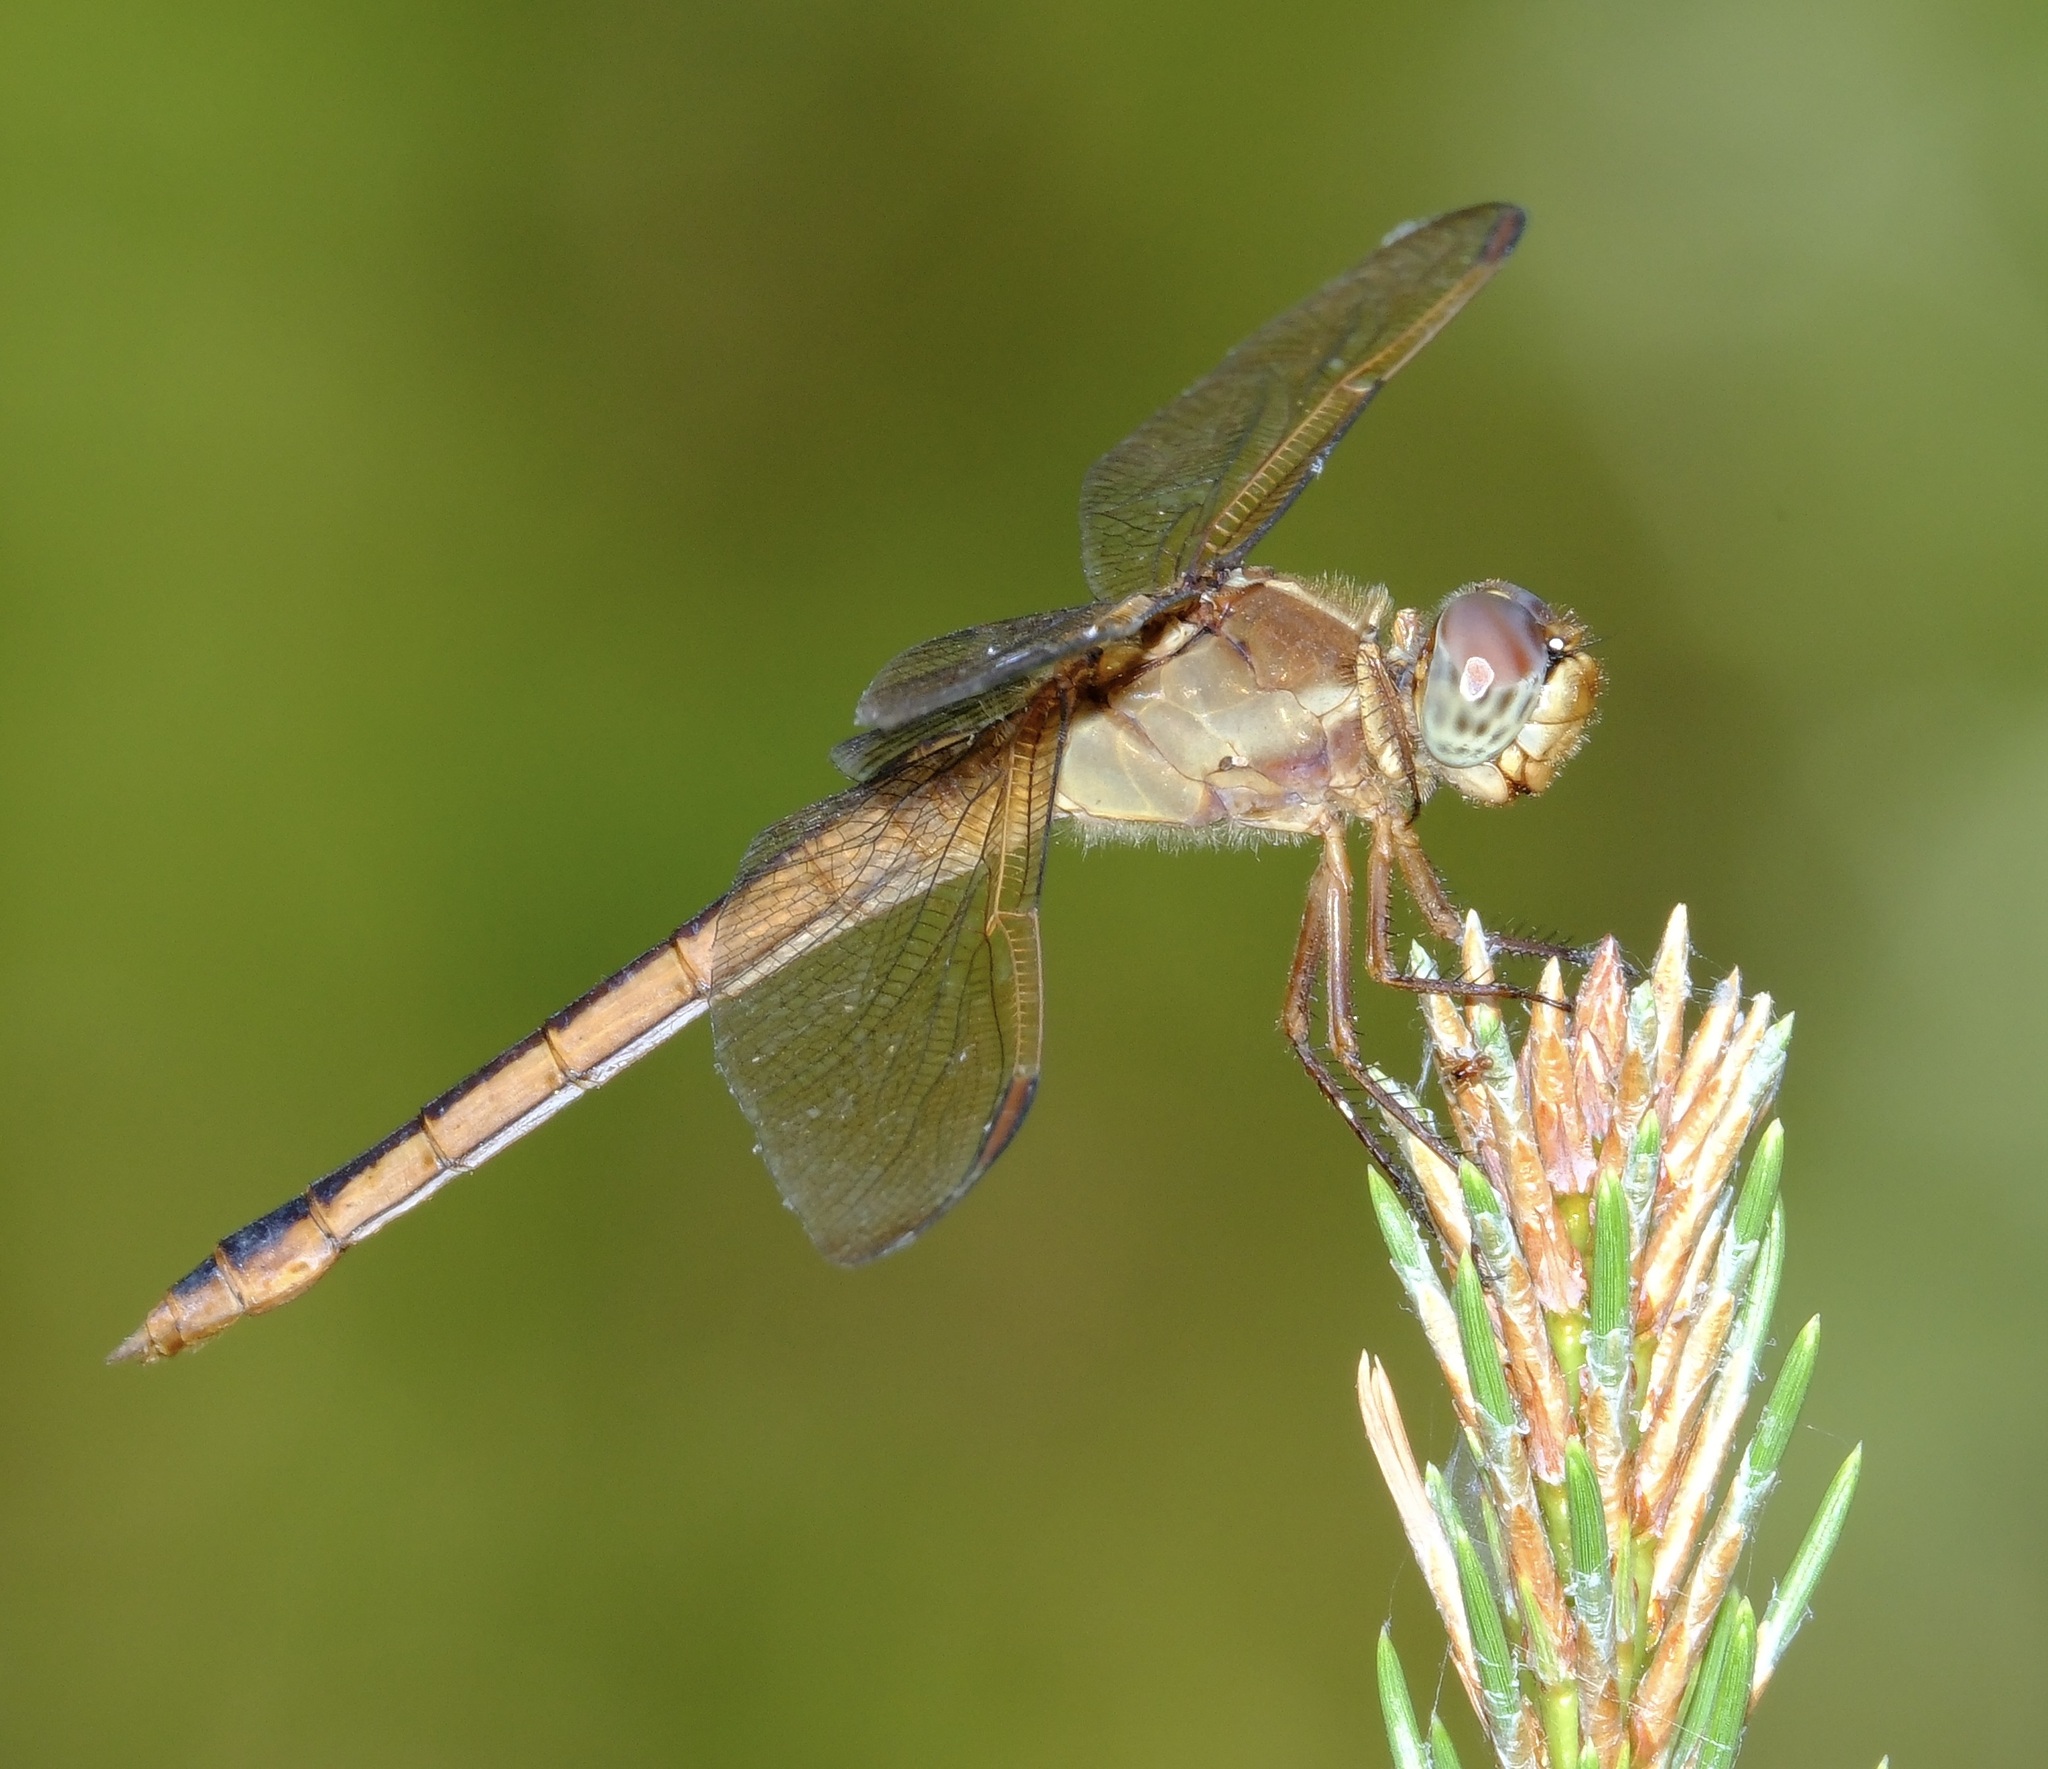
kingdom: Animalia
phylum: Arthropoda
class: Insecta
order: Odonata
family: Libellulidae
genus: Libellula
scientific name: Libellula needhami
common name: Needham's skimmer
